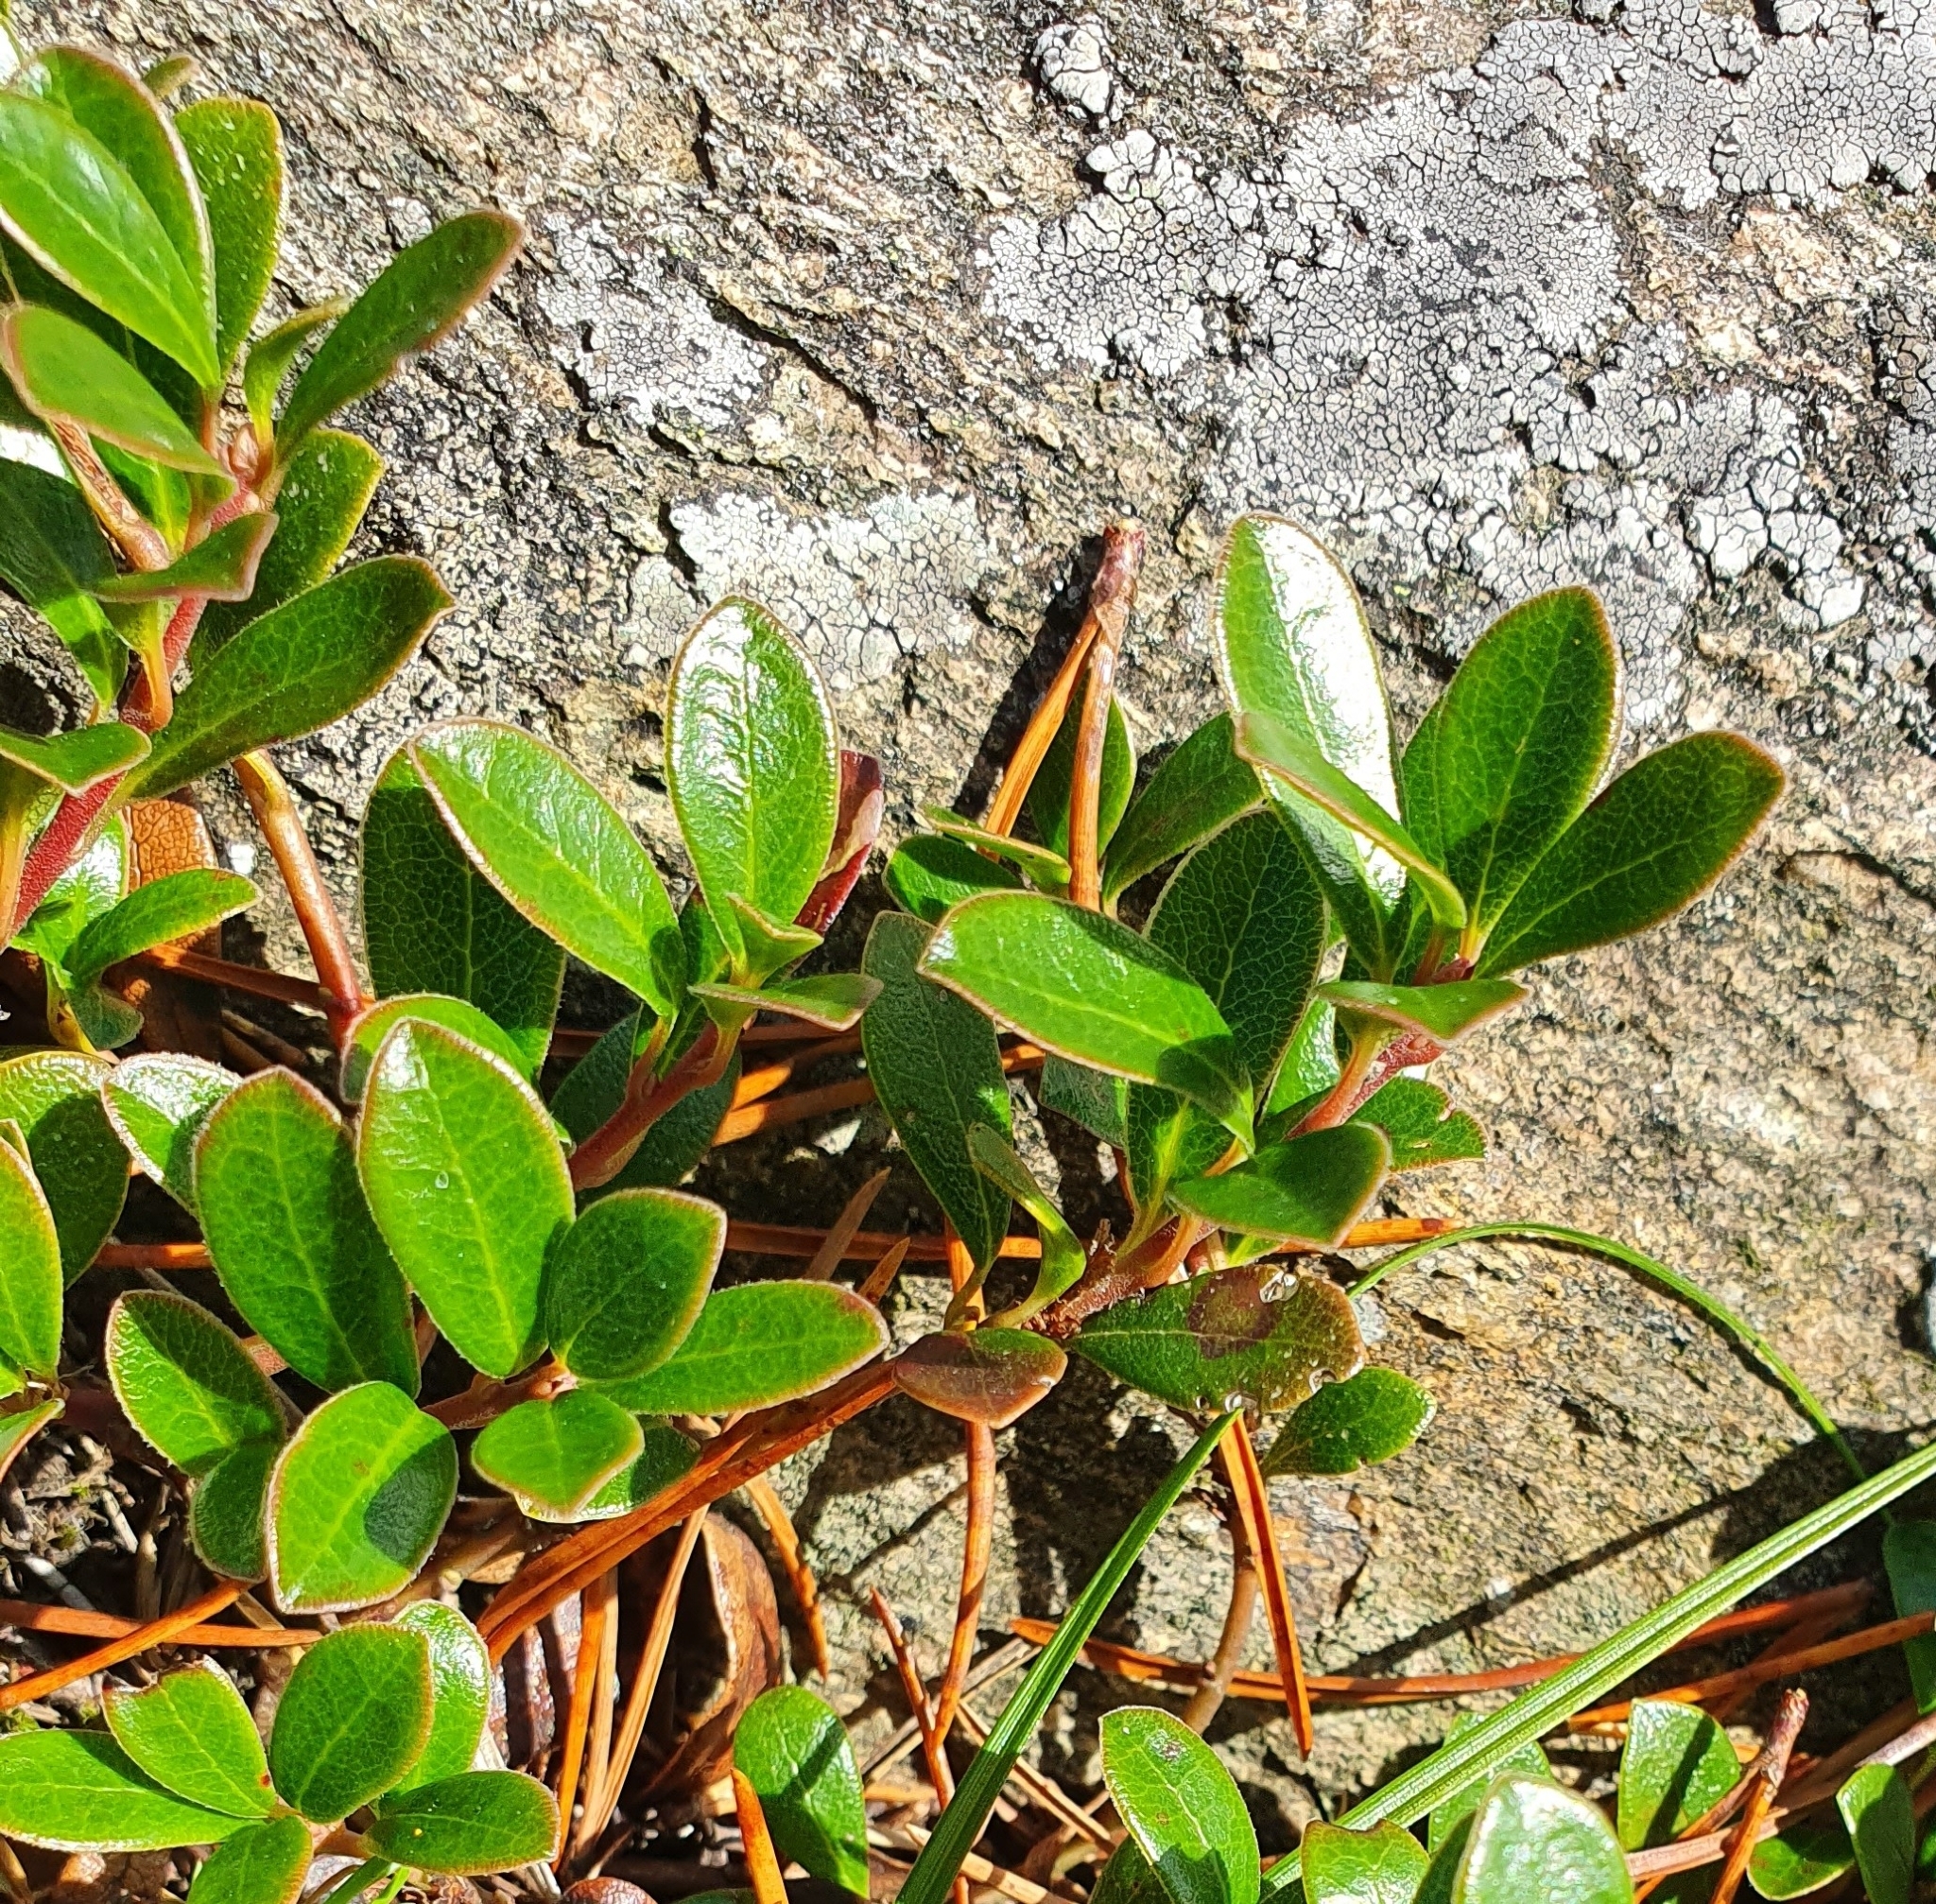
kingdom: Plantae
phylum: Tracheophyta
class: Magnoliopsida
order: Ericales
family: Ericaceae
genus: Arctostaphylos
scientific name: Arctostaphylos uva-ursi
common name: Bearberry
